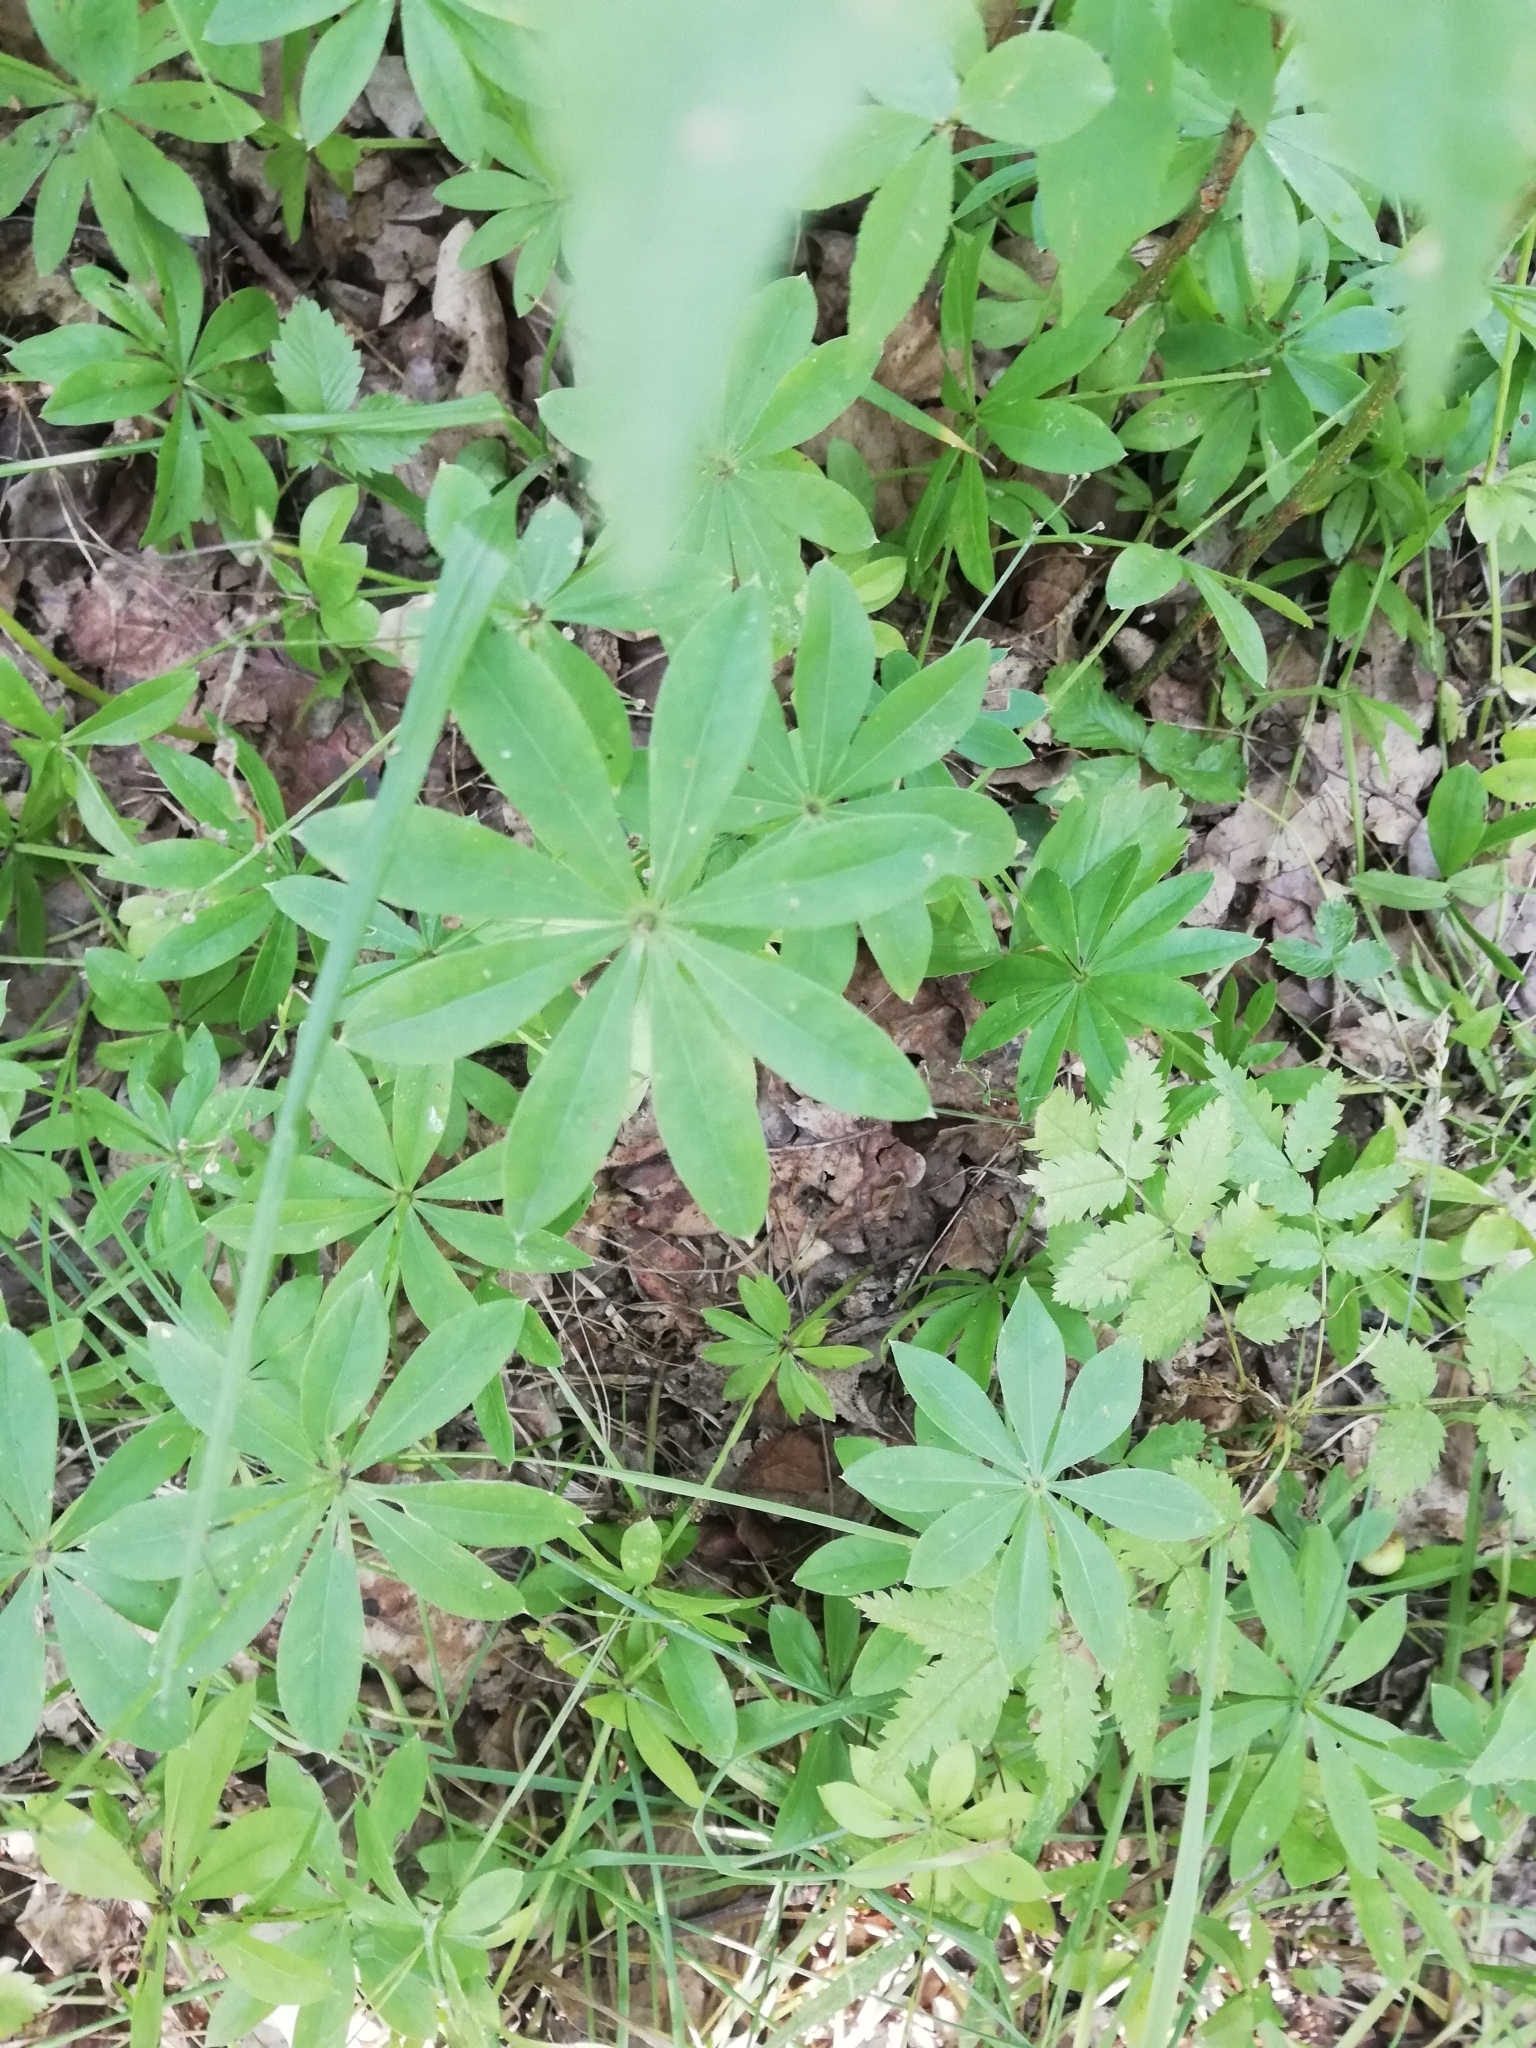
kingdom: Plantae
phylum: Tracheophyta
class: Magnoliopsida
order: Gentianales
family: Rubiaceae
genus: Galium
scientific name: Galium odoratum
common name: Sweet woodruff
